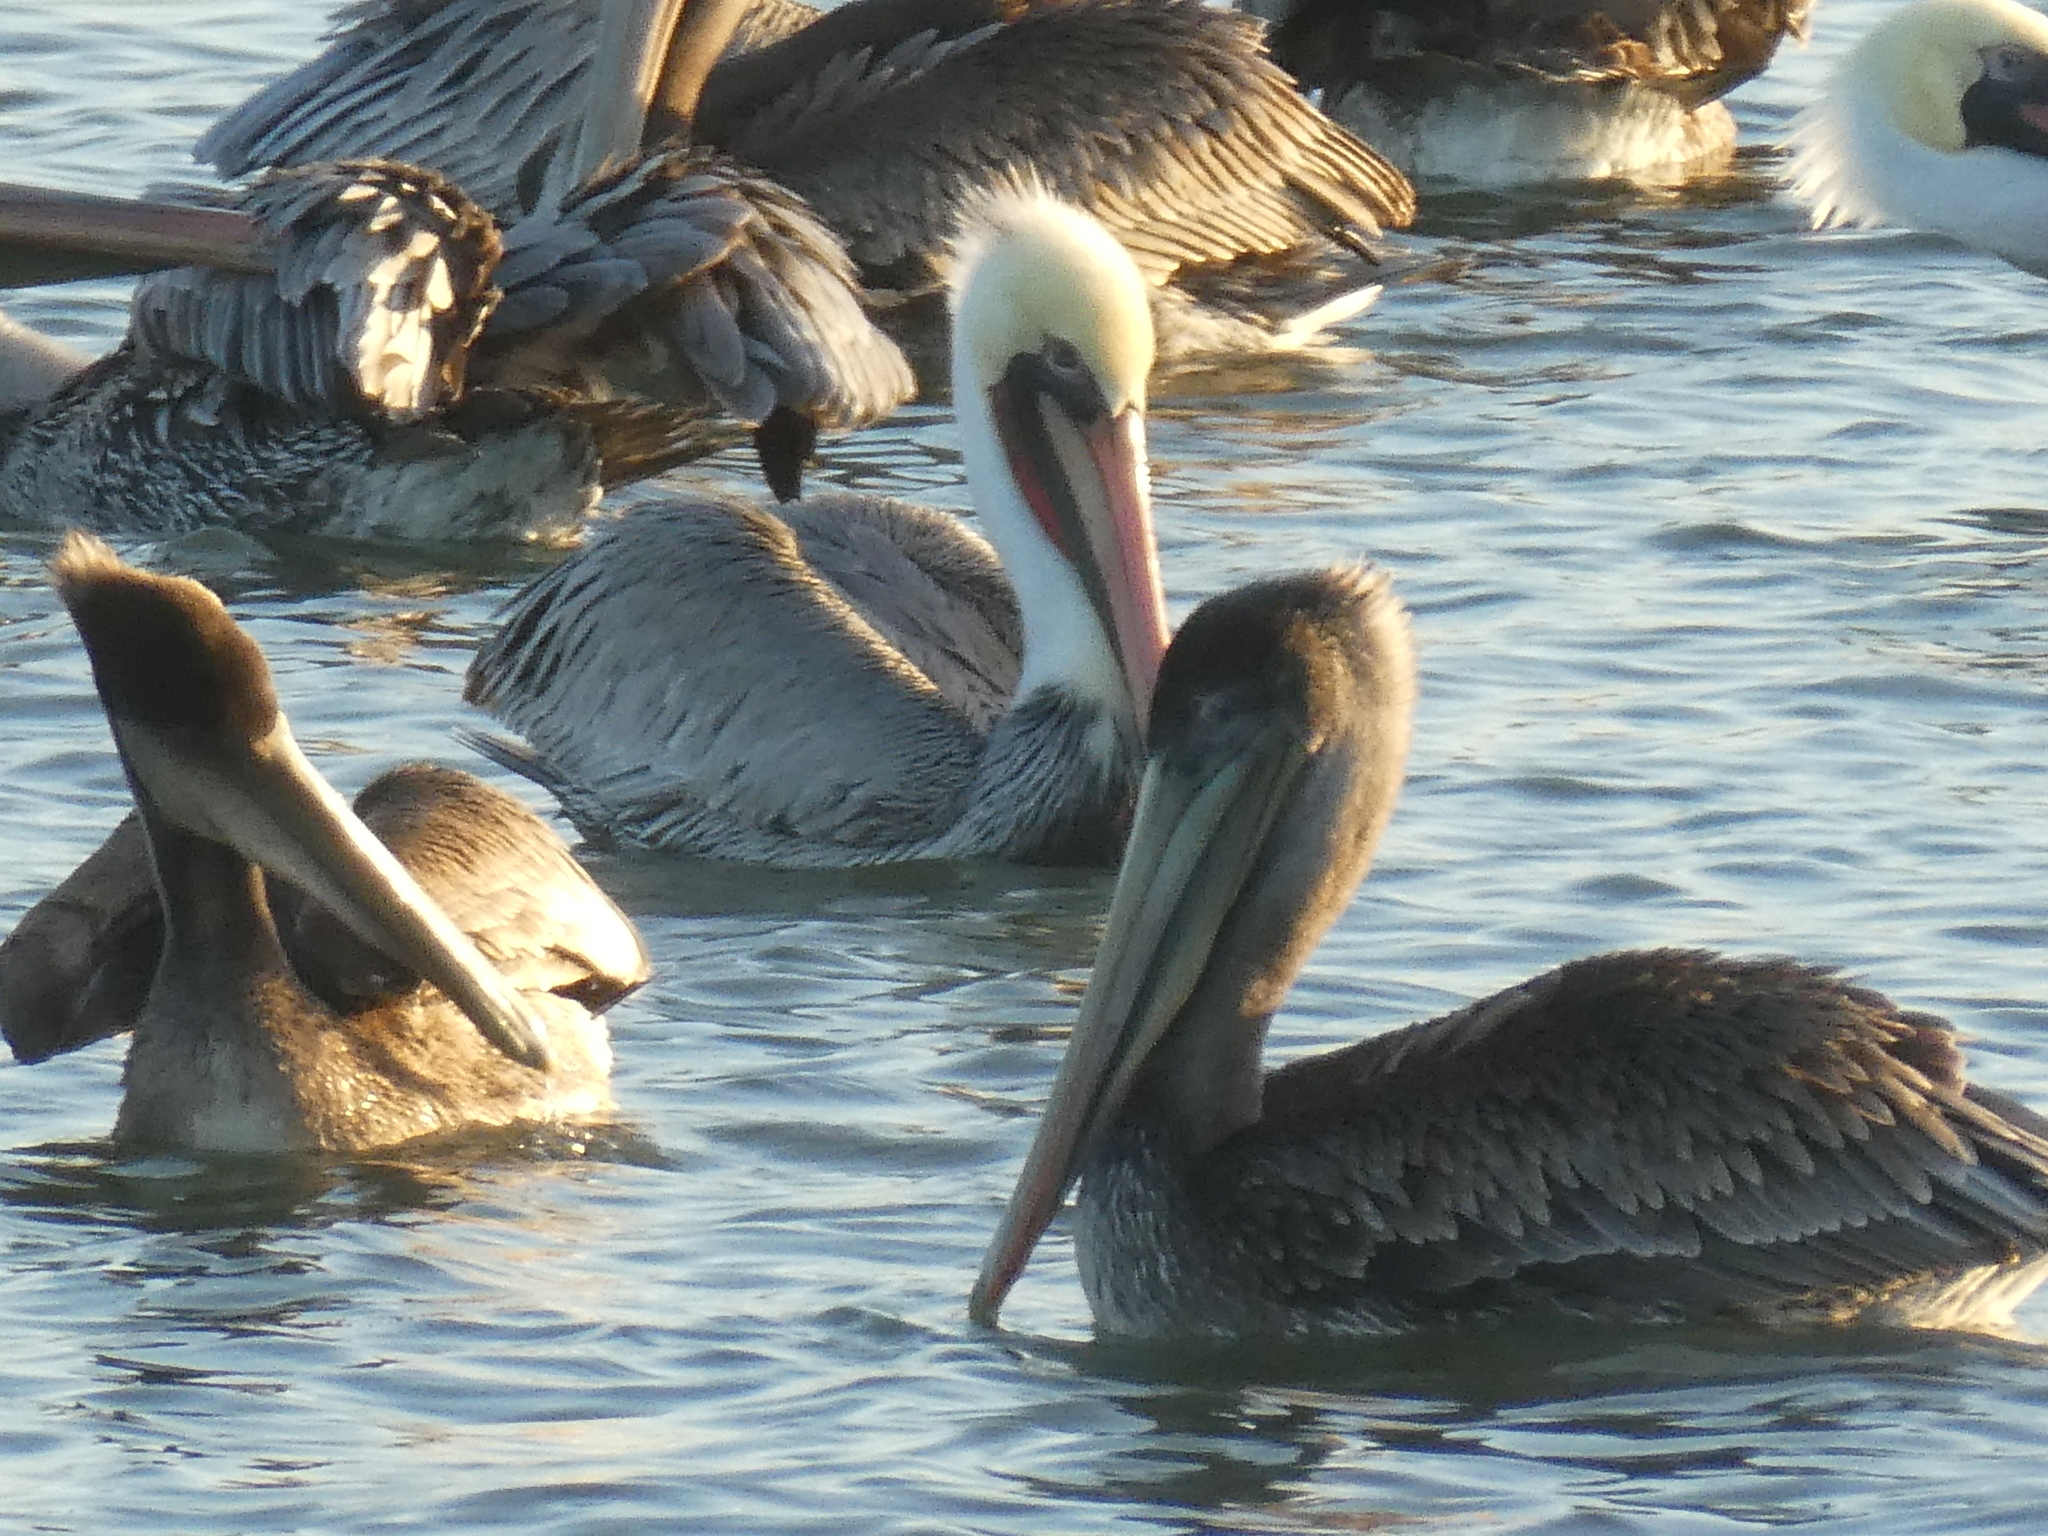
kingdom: Animalia
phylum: Chordata
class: Aves
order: Pelecaniformes
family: Pelecanidae
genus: Pelecanus
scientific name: Pelecanus occidentalis
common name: Brown pelican
